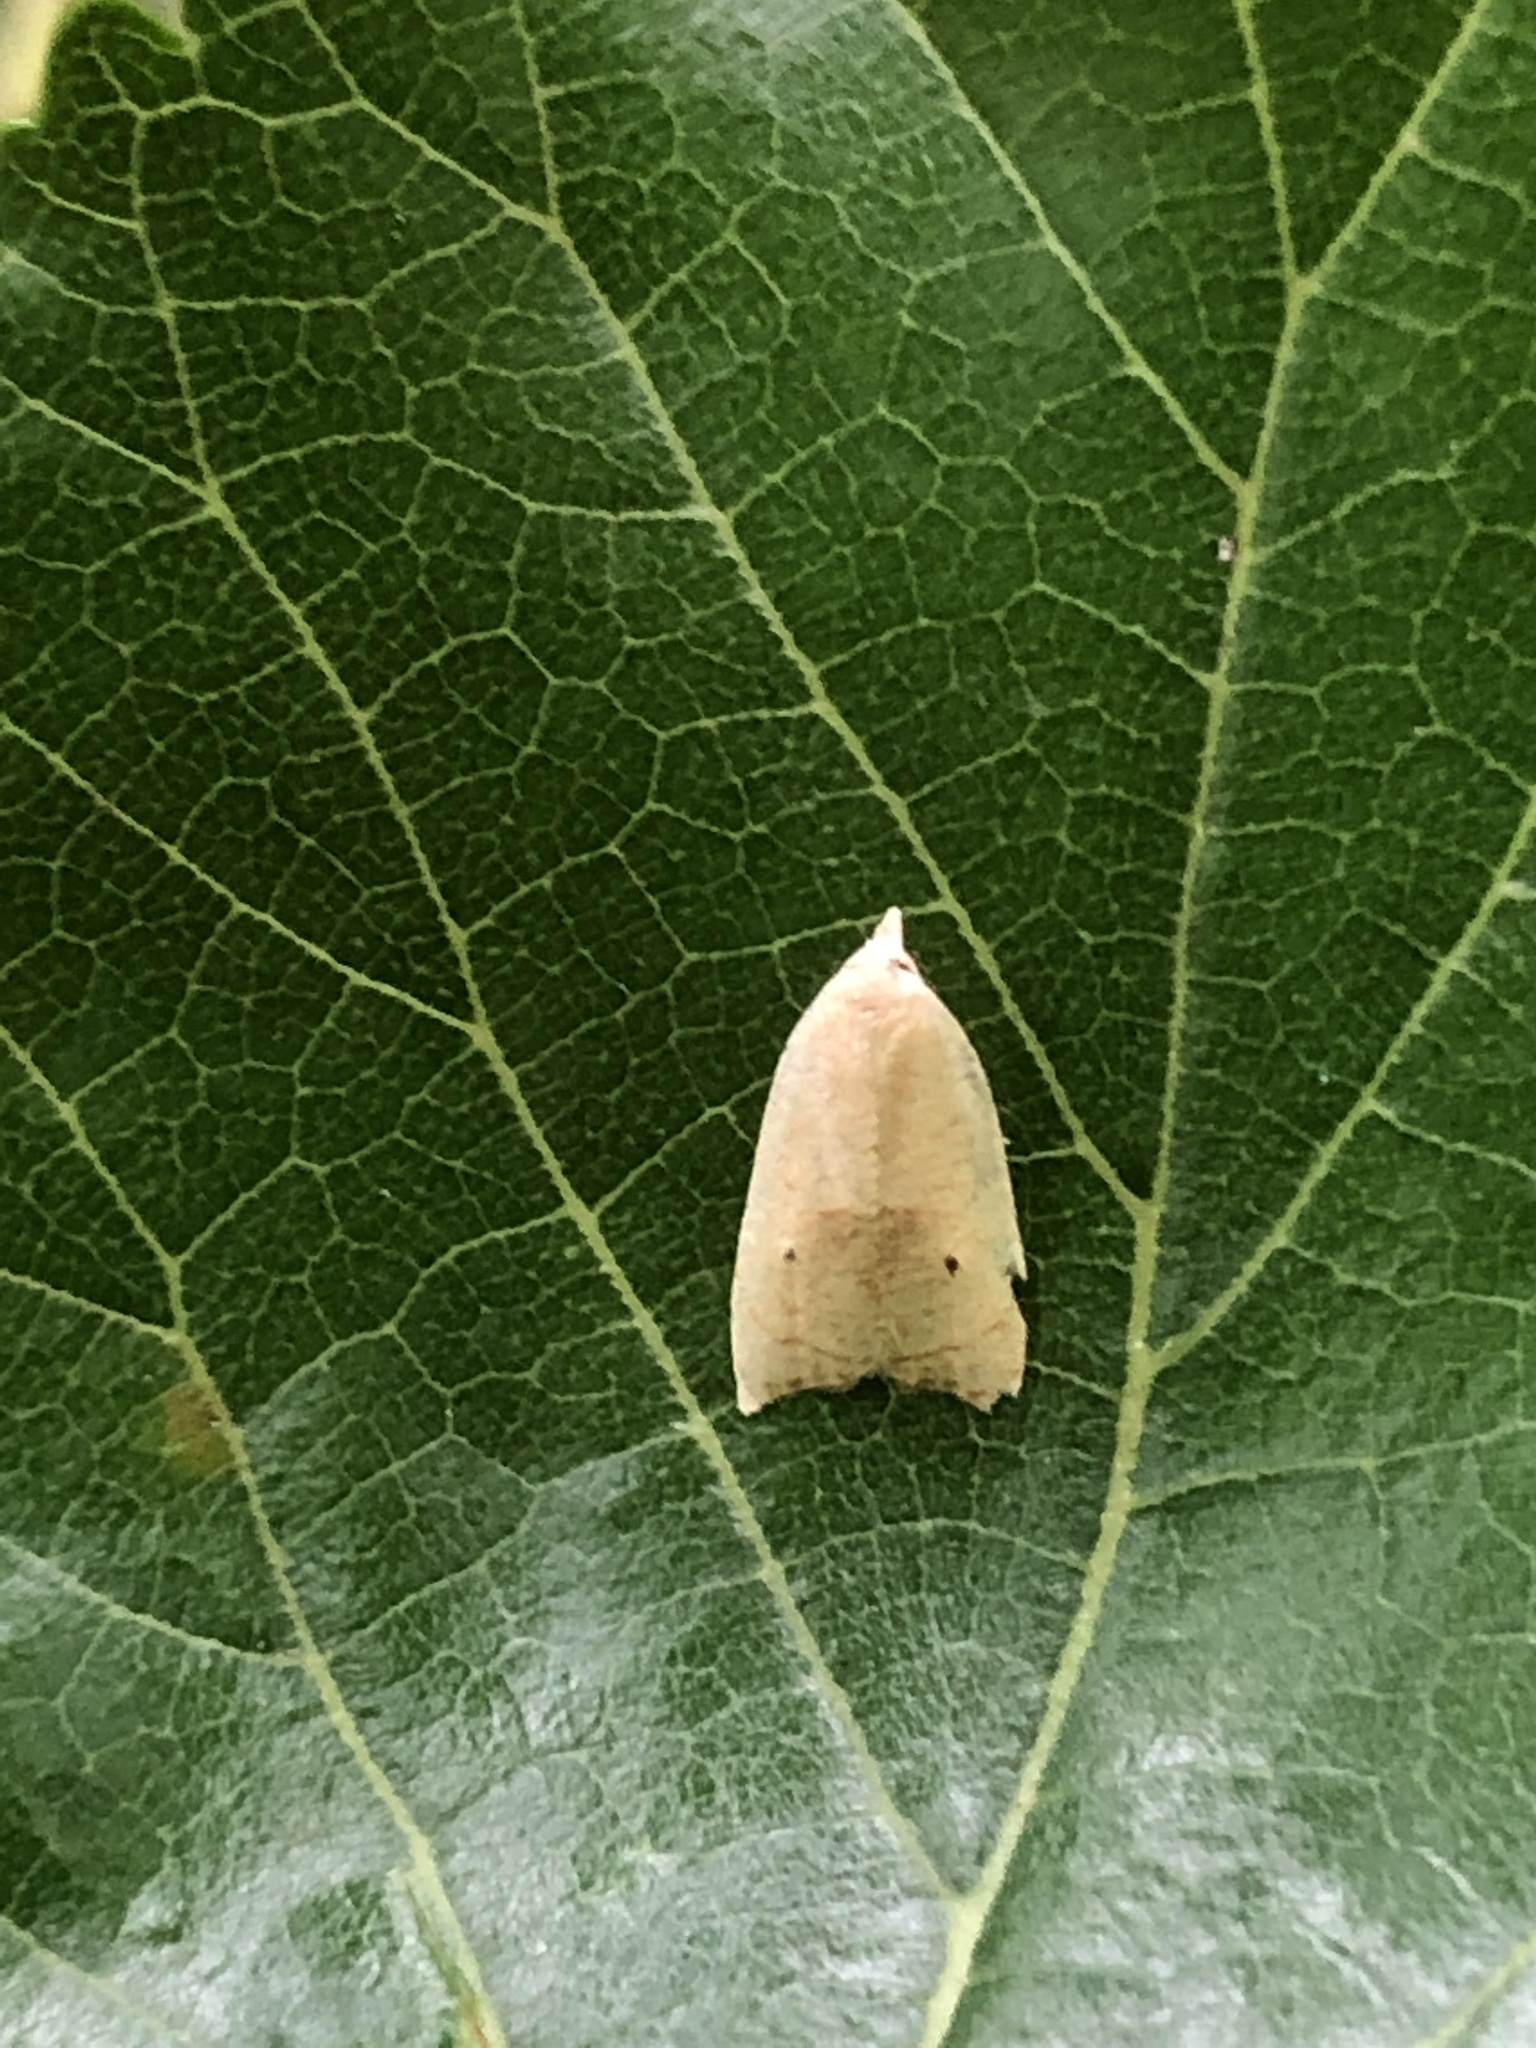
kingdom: Animalia
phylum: Arthropoda
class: Insecta
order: Lepidoptera
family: Tortricidae
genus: Coelostathma
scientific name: Coelostathma discopunctana
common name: Batman moth
